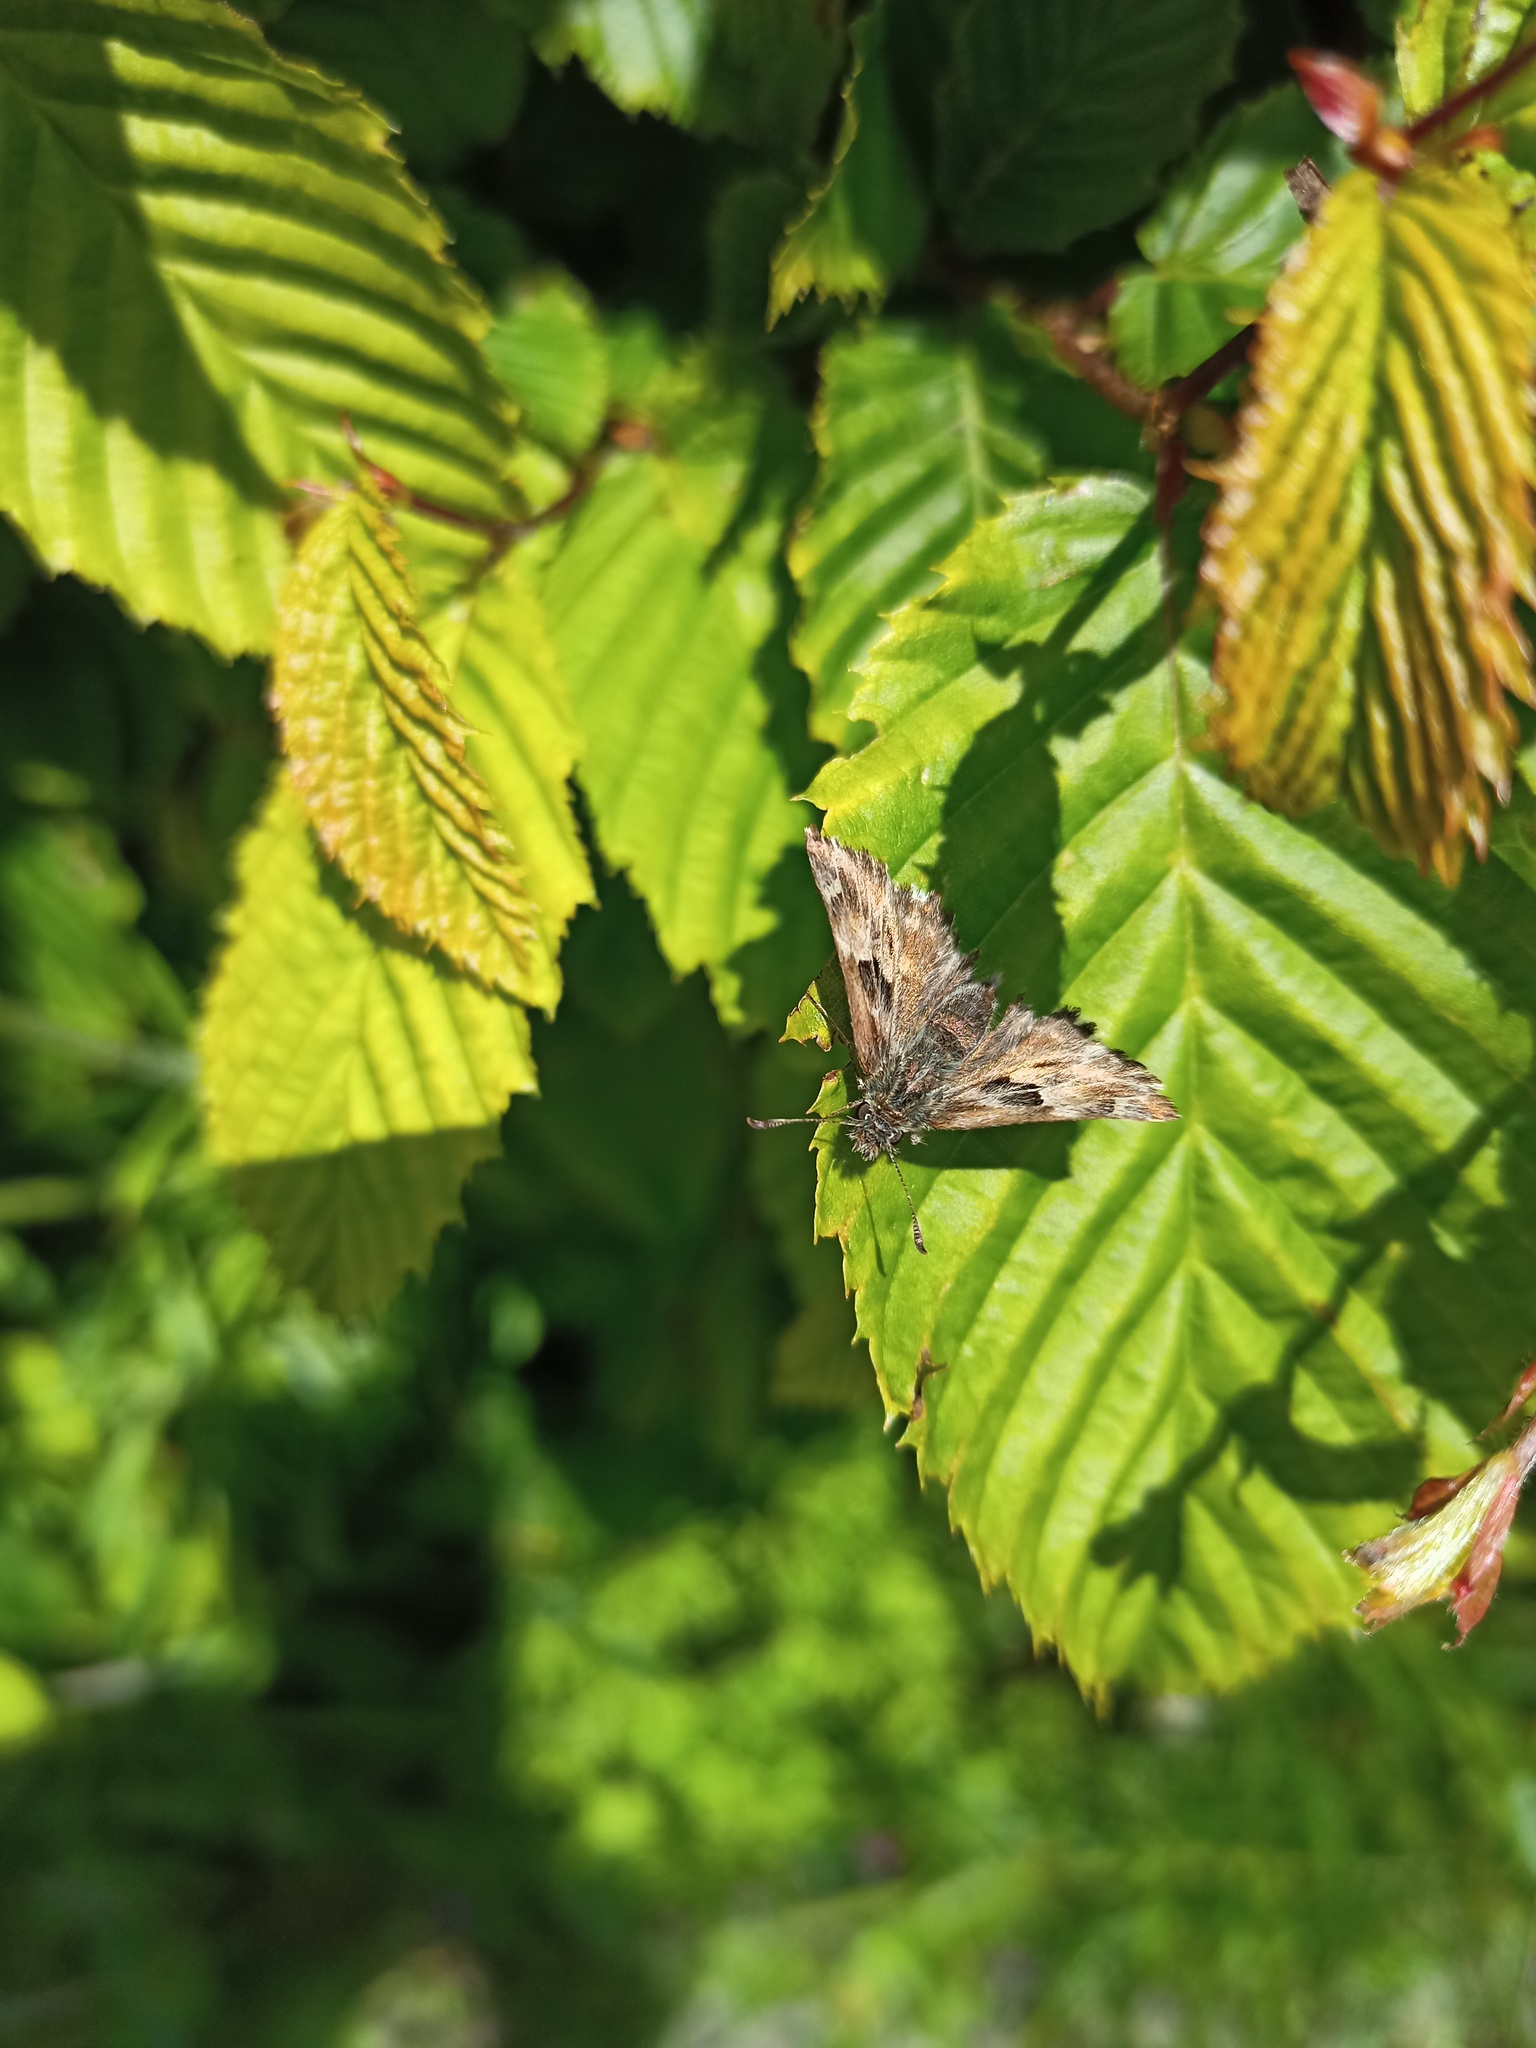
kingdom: Animalia
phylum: Arthropoda
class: Insecta
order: Lepidoptera
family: Hesperiidae
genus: Carcharodus
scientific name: Carcharodus alceae
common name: Mallow skipper
